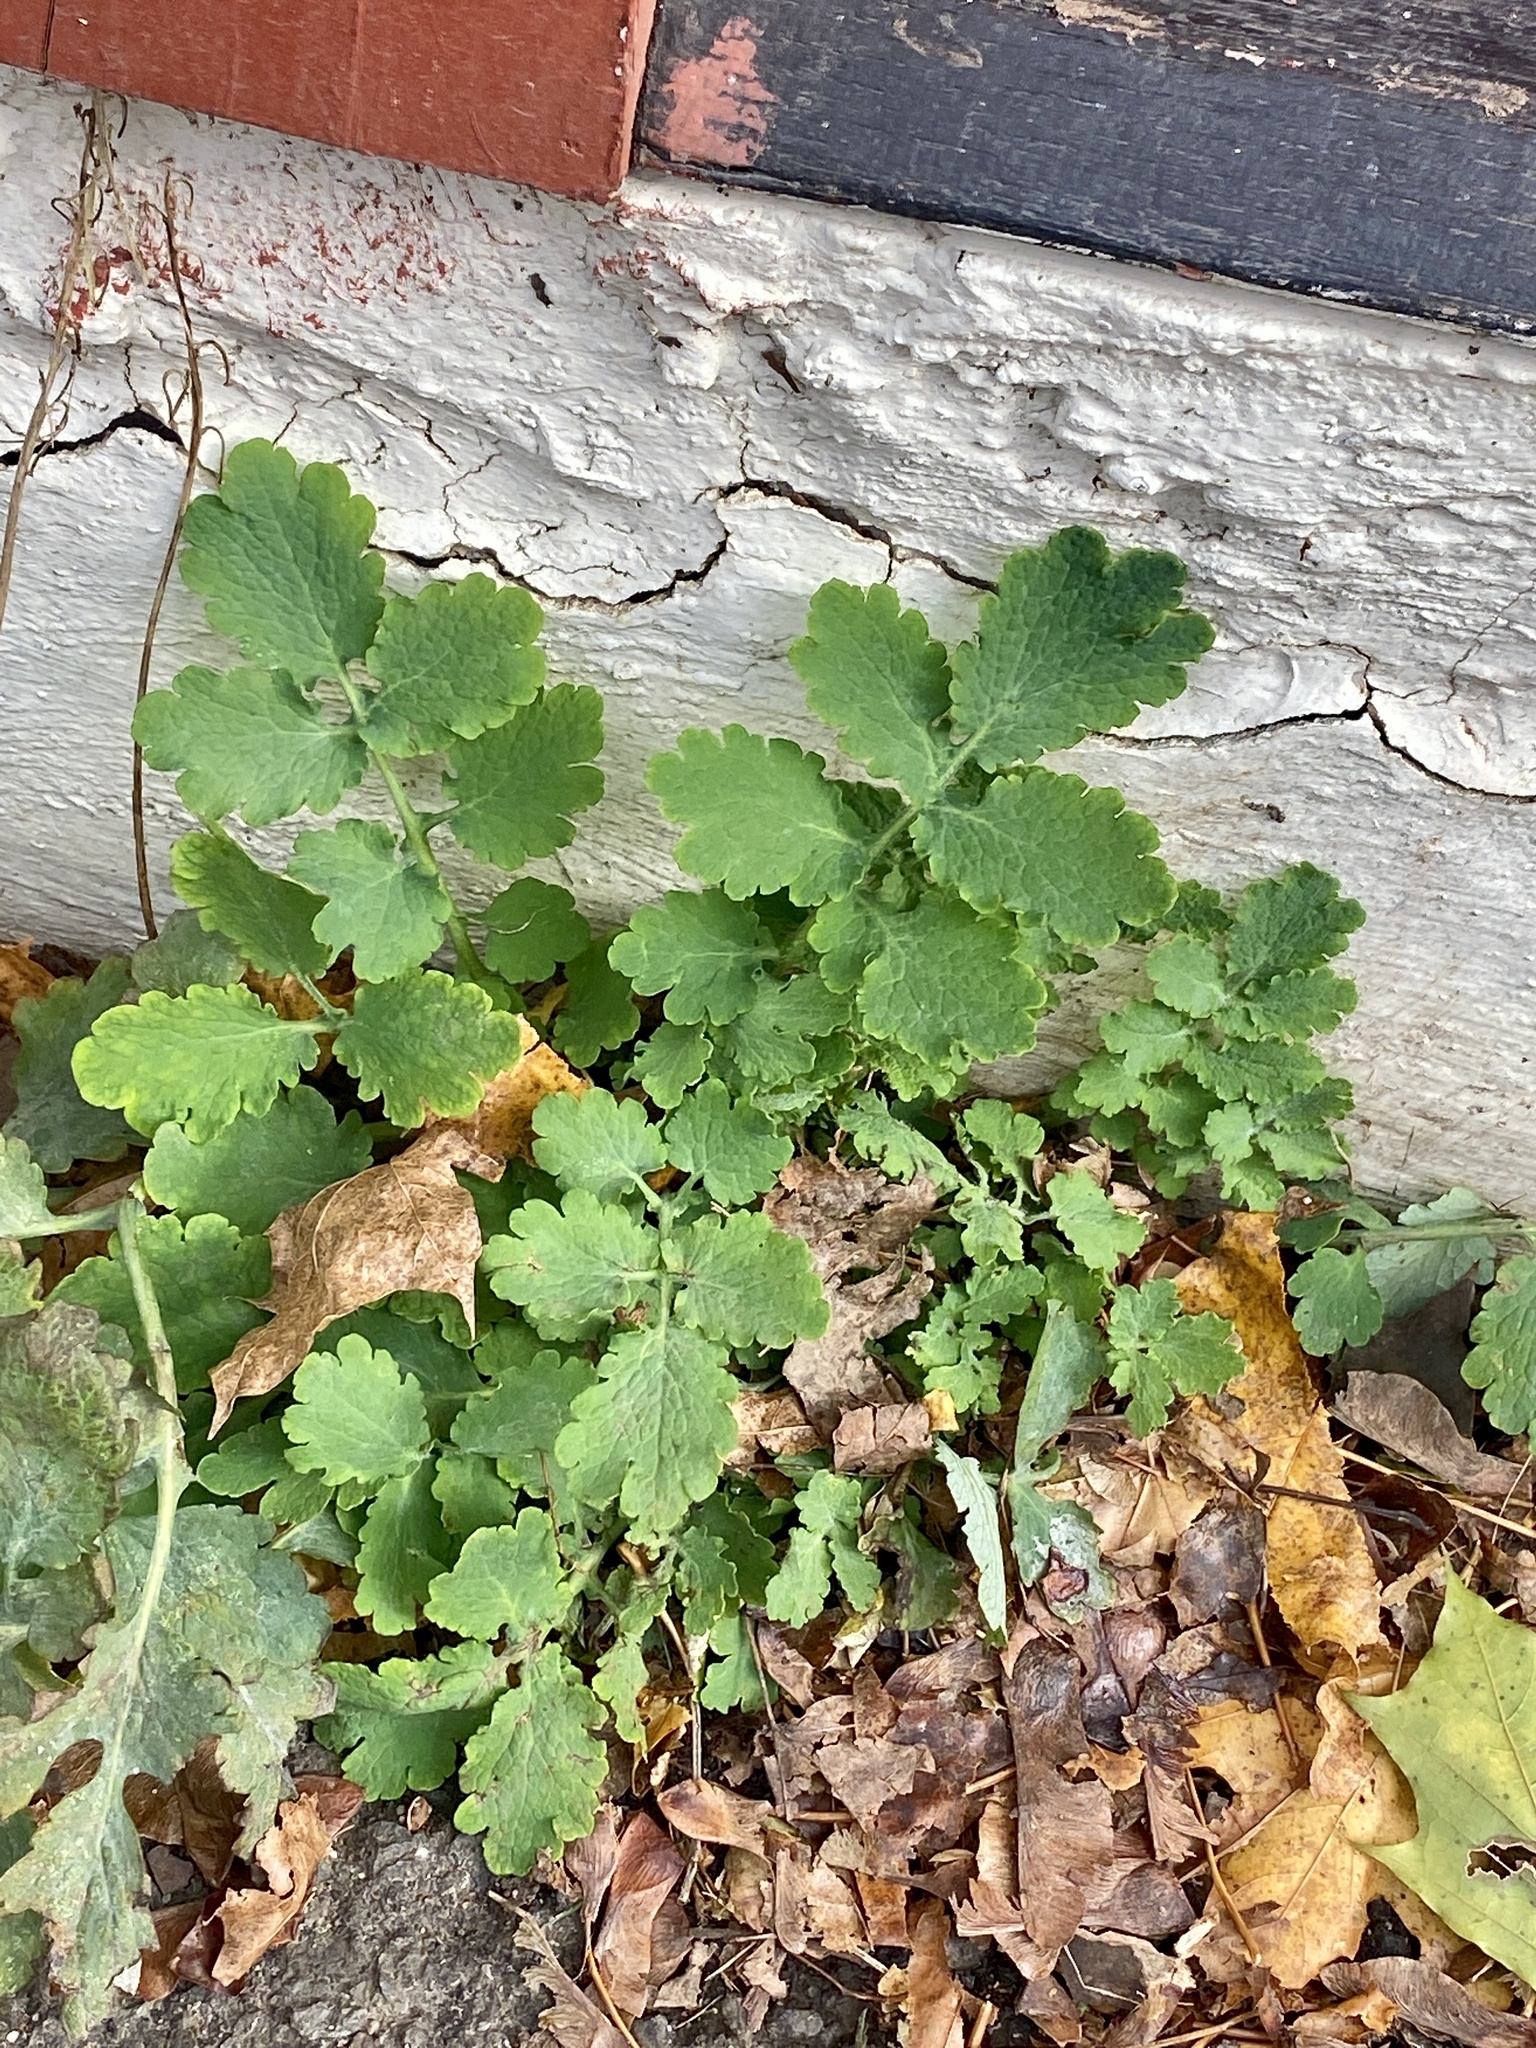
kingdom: Plantae
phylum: Tracheophyta
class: Magnoliopsida
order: Ranunculales
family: Papaveraceae
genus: Chelidonium
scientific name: Chelidonium majus
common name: Greater celandine
